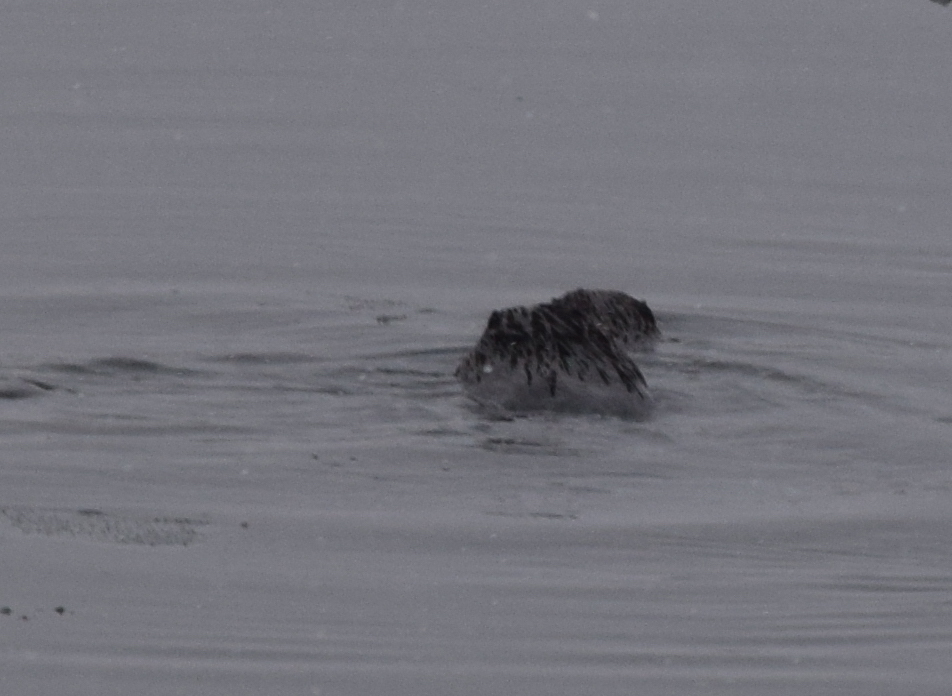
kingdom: Animalia
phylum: Chordata
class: Mammalia
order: Rodentia
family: Castoridae
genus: Castor
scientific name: Castor canadensis
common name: American beaver
